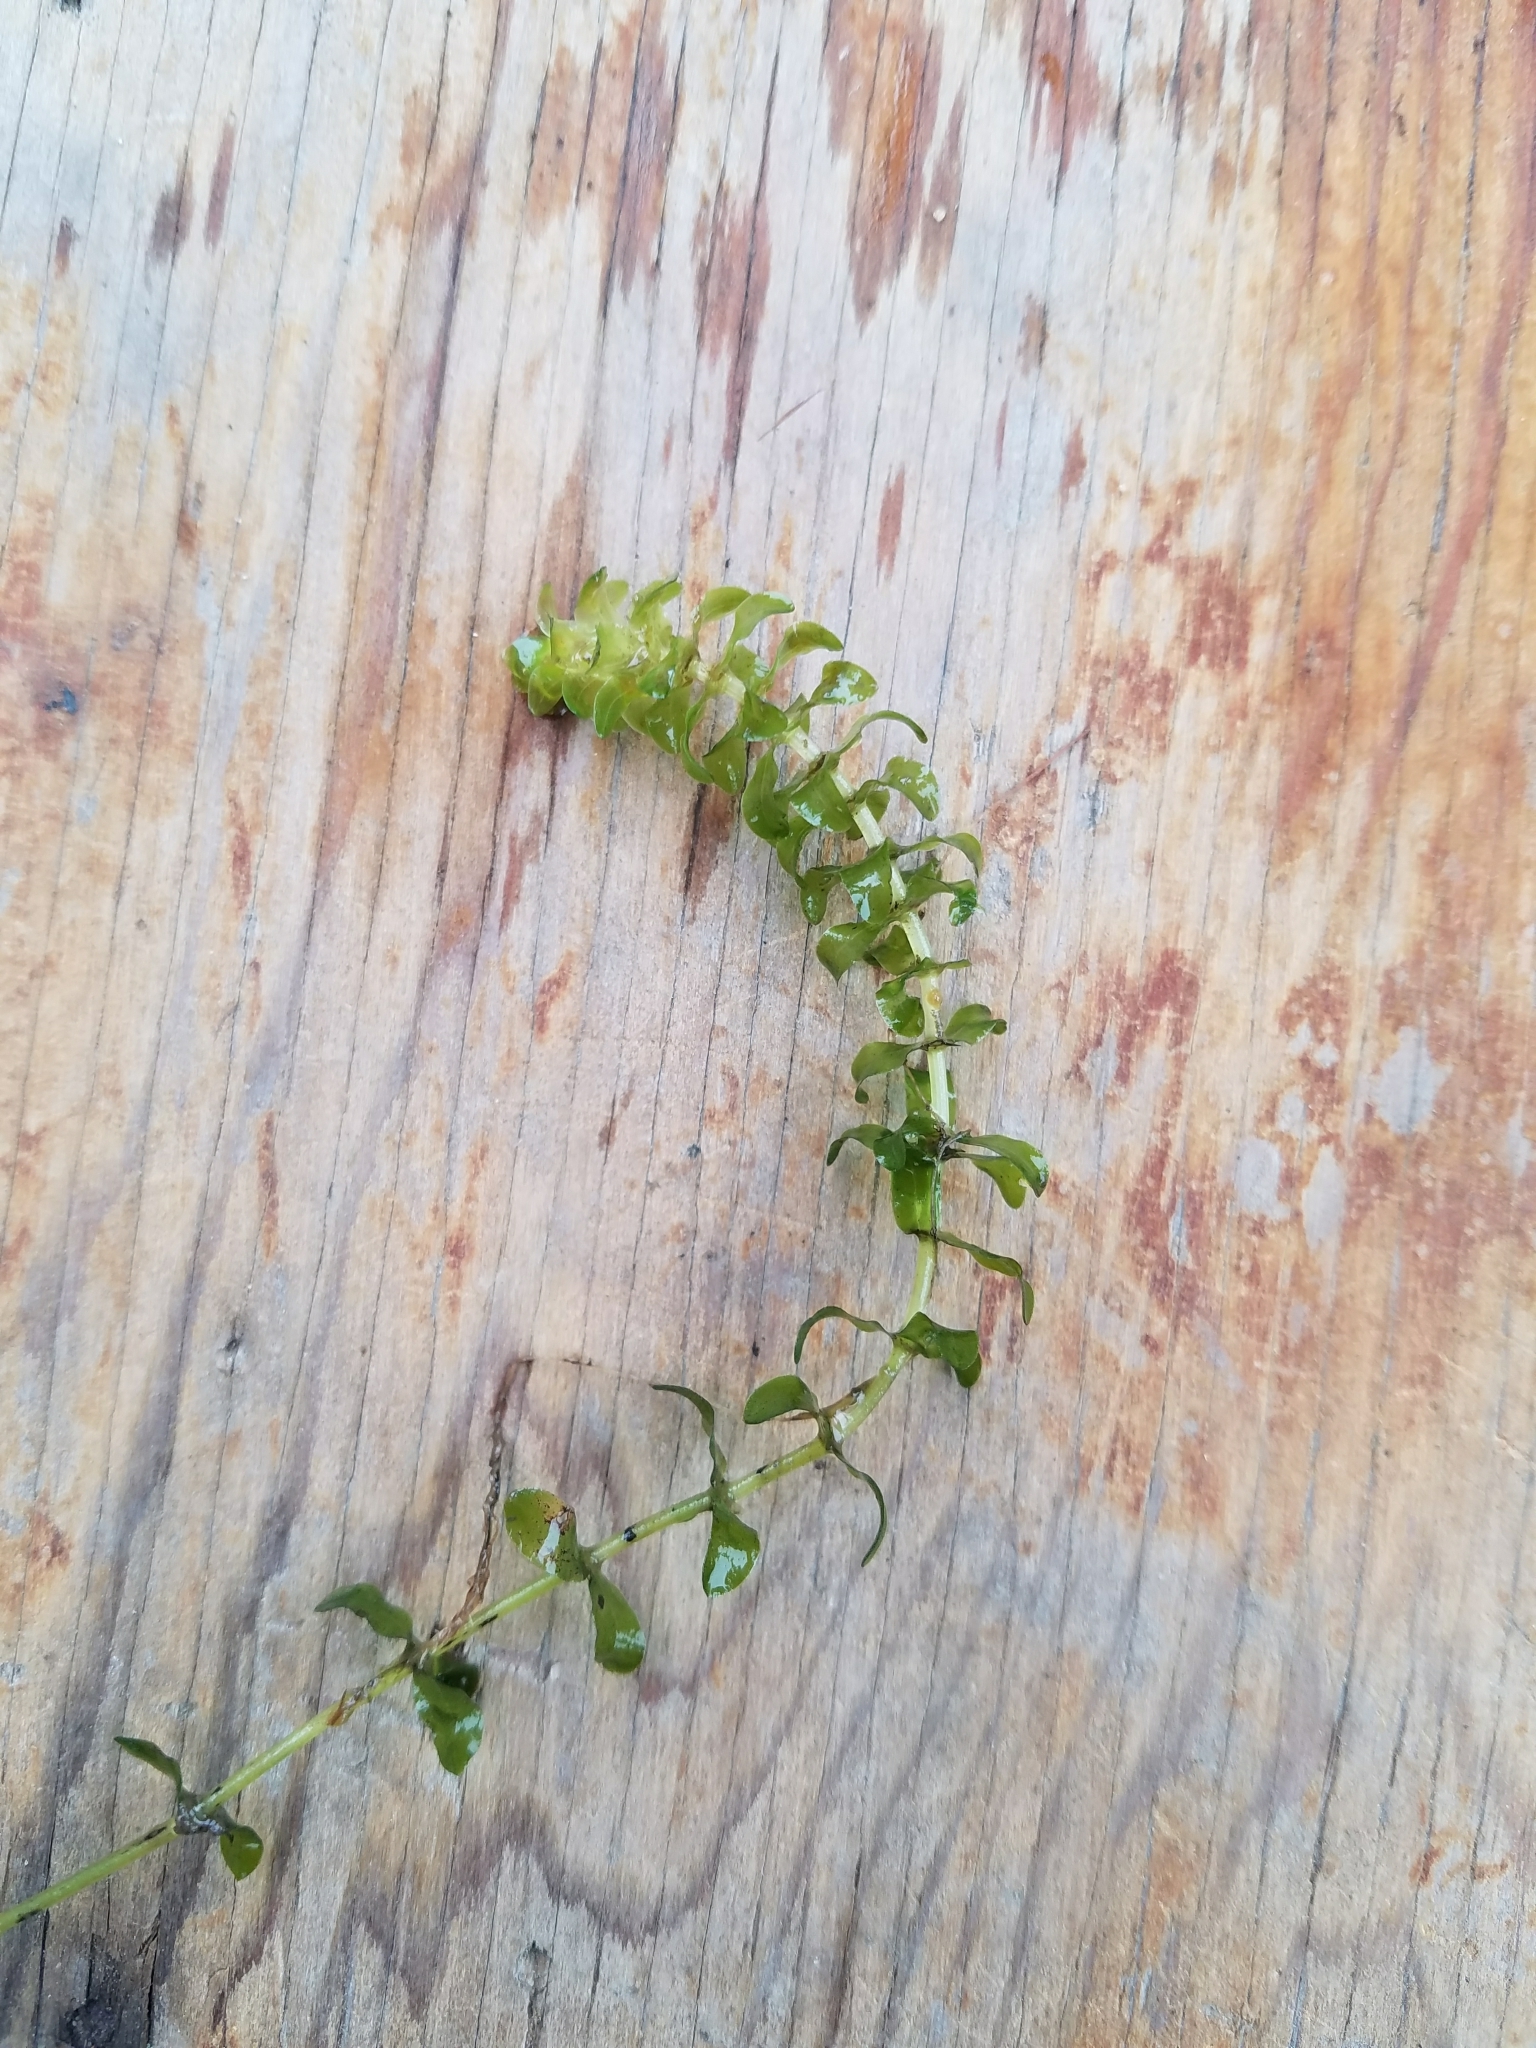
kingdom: Plantae
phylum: Tracheophyta
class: Liliopsida
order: Alismatales
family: Hydrocharitaceae
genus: Elodea
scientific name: Elodea canadensis
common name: Canadian waterweed
